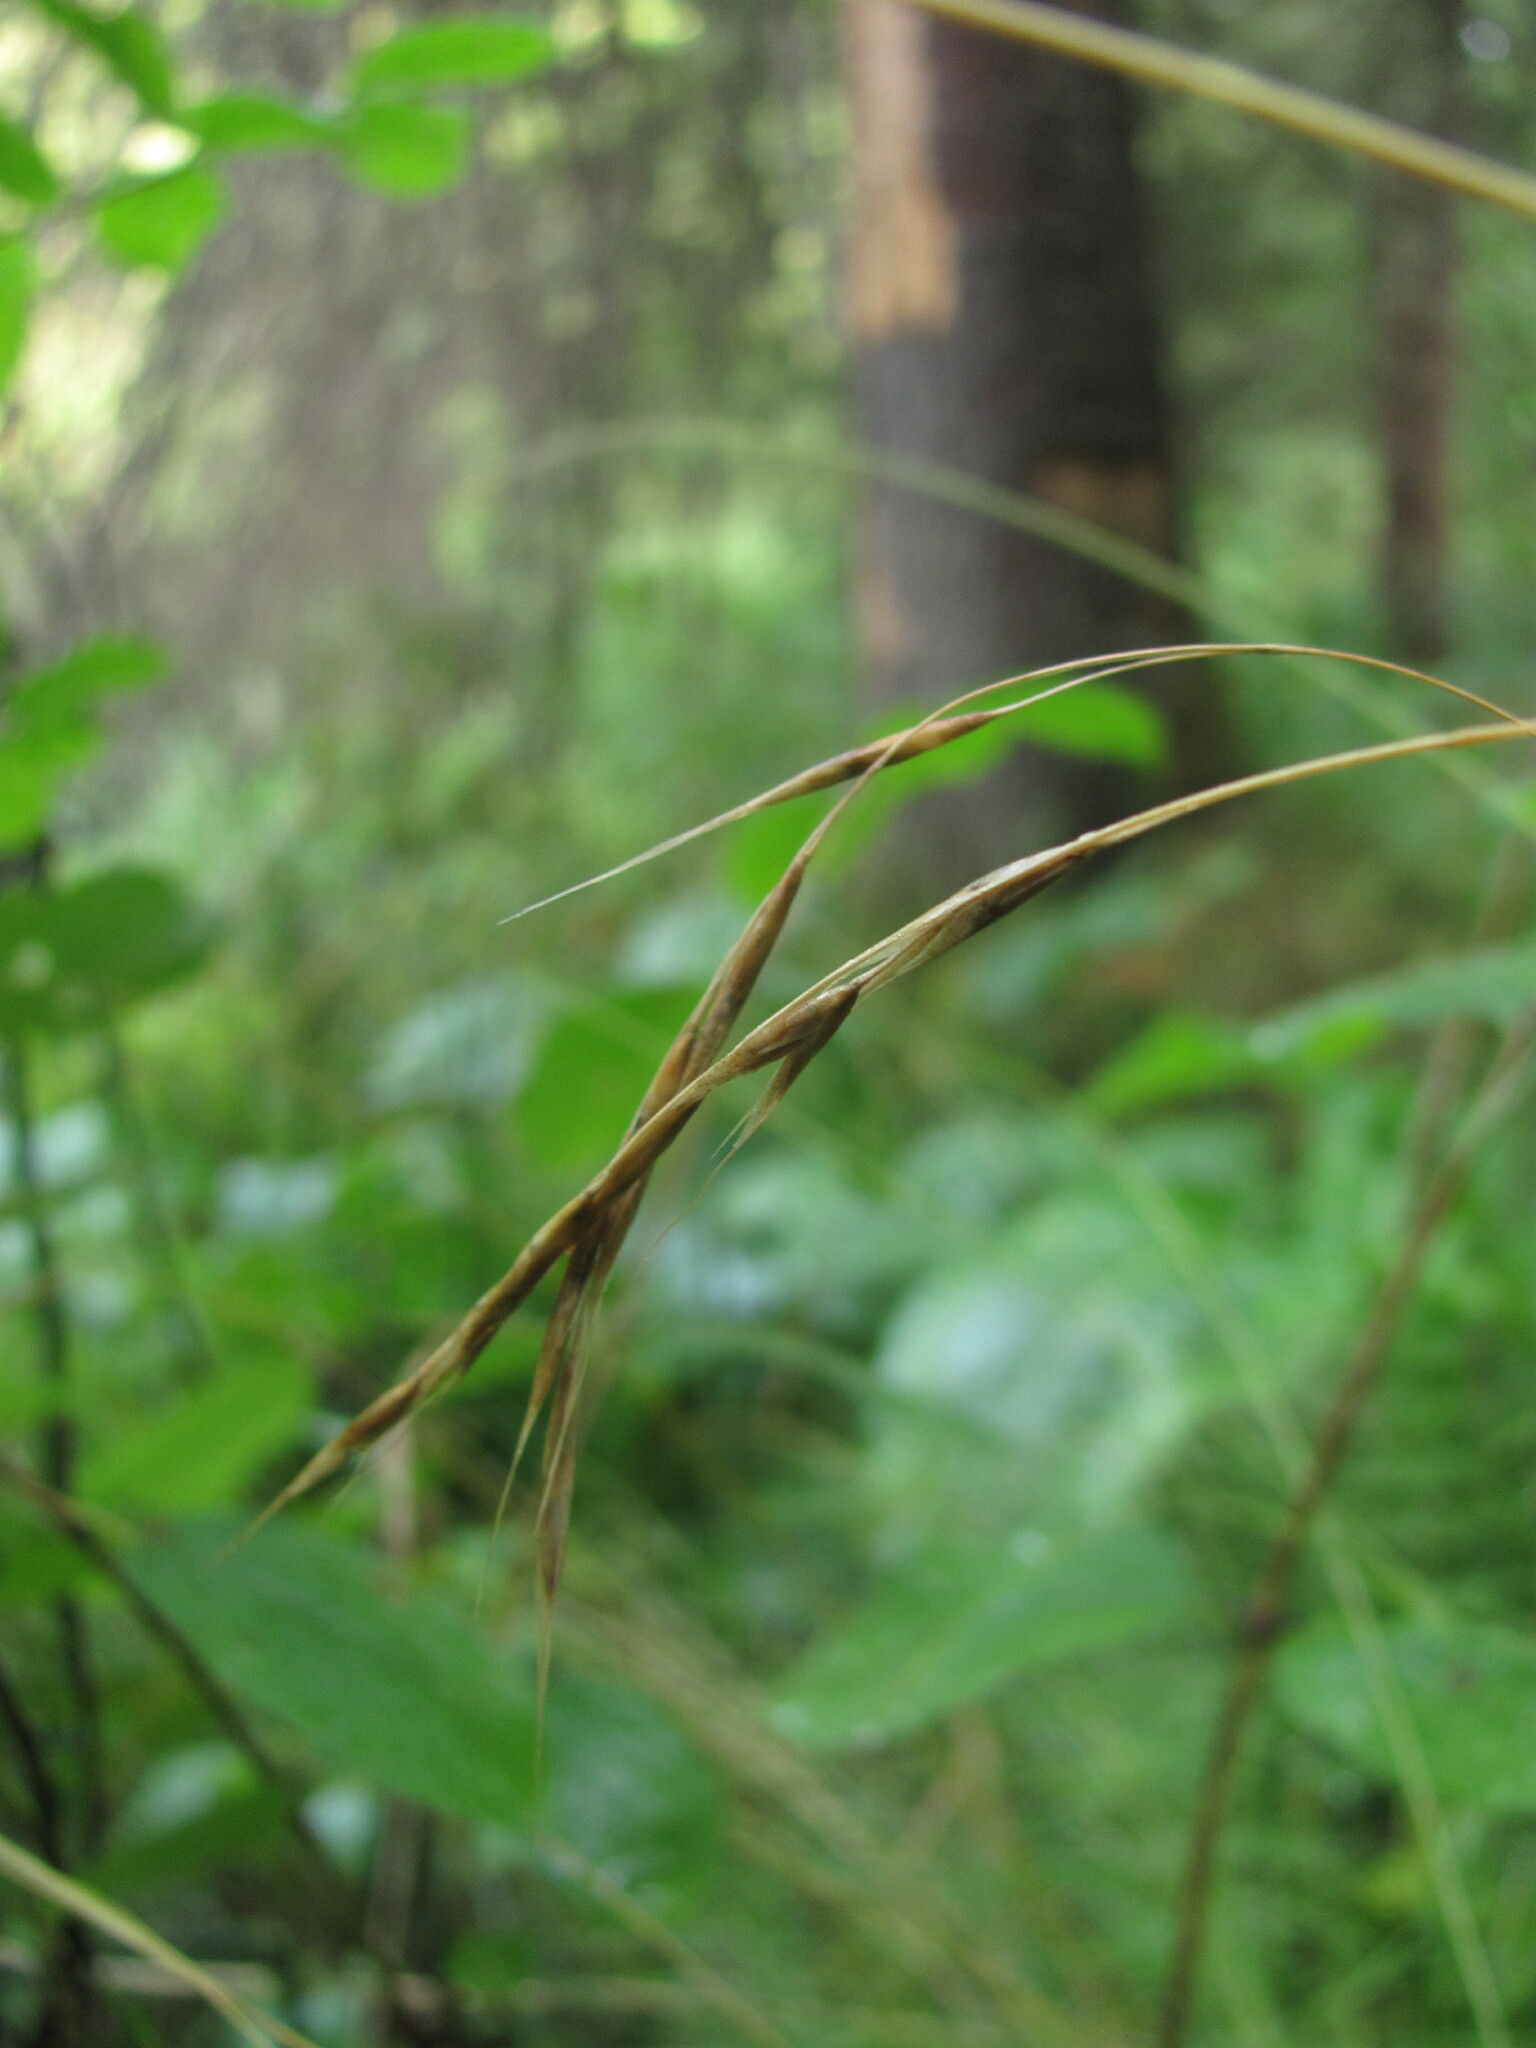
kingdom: Plantae
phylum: Tracheophyta
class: Liliopsida
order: Poales
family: Poaceae
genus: Schizachne
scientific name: Schizachne purpurascens
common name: False melic
